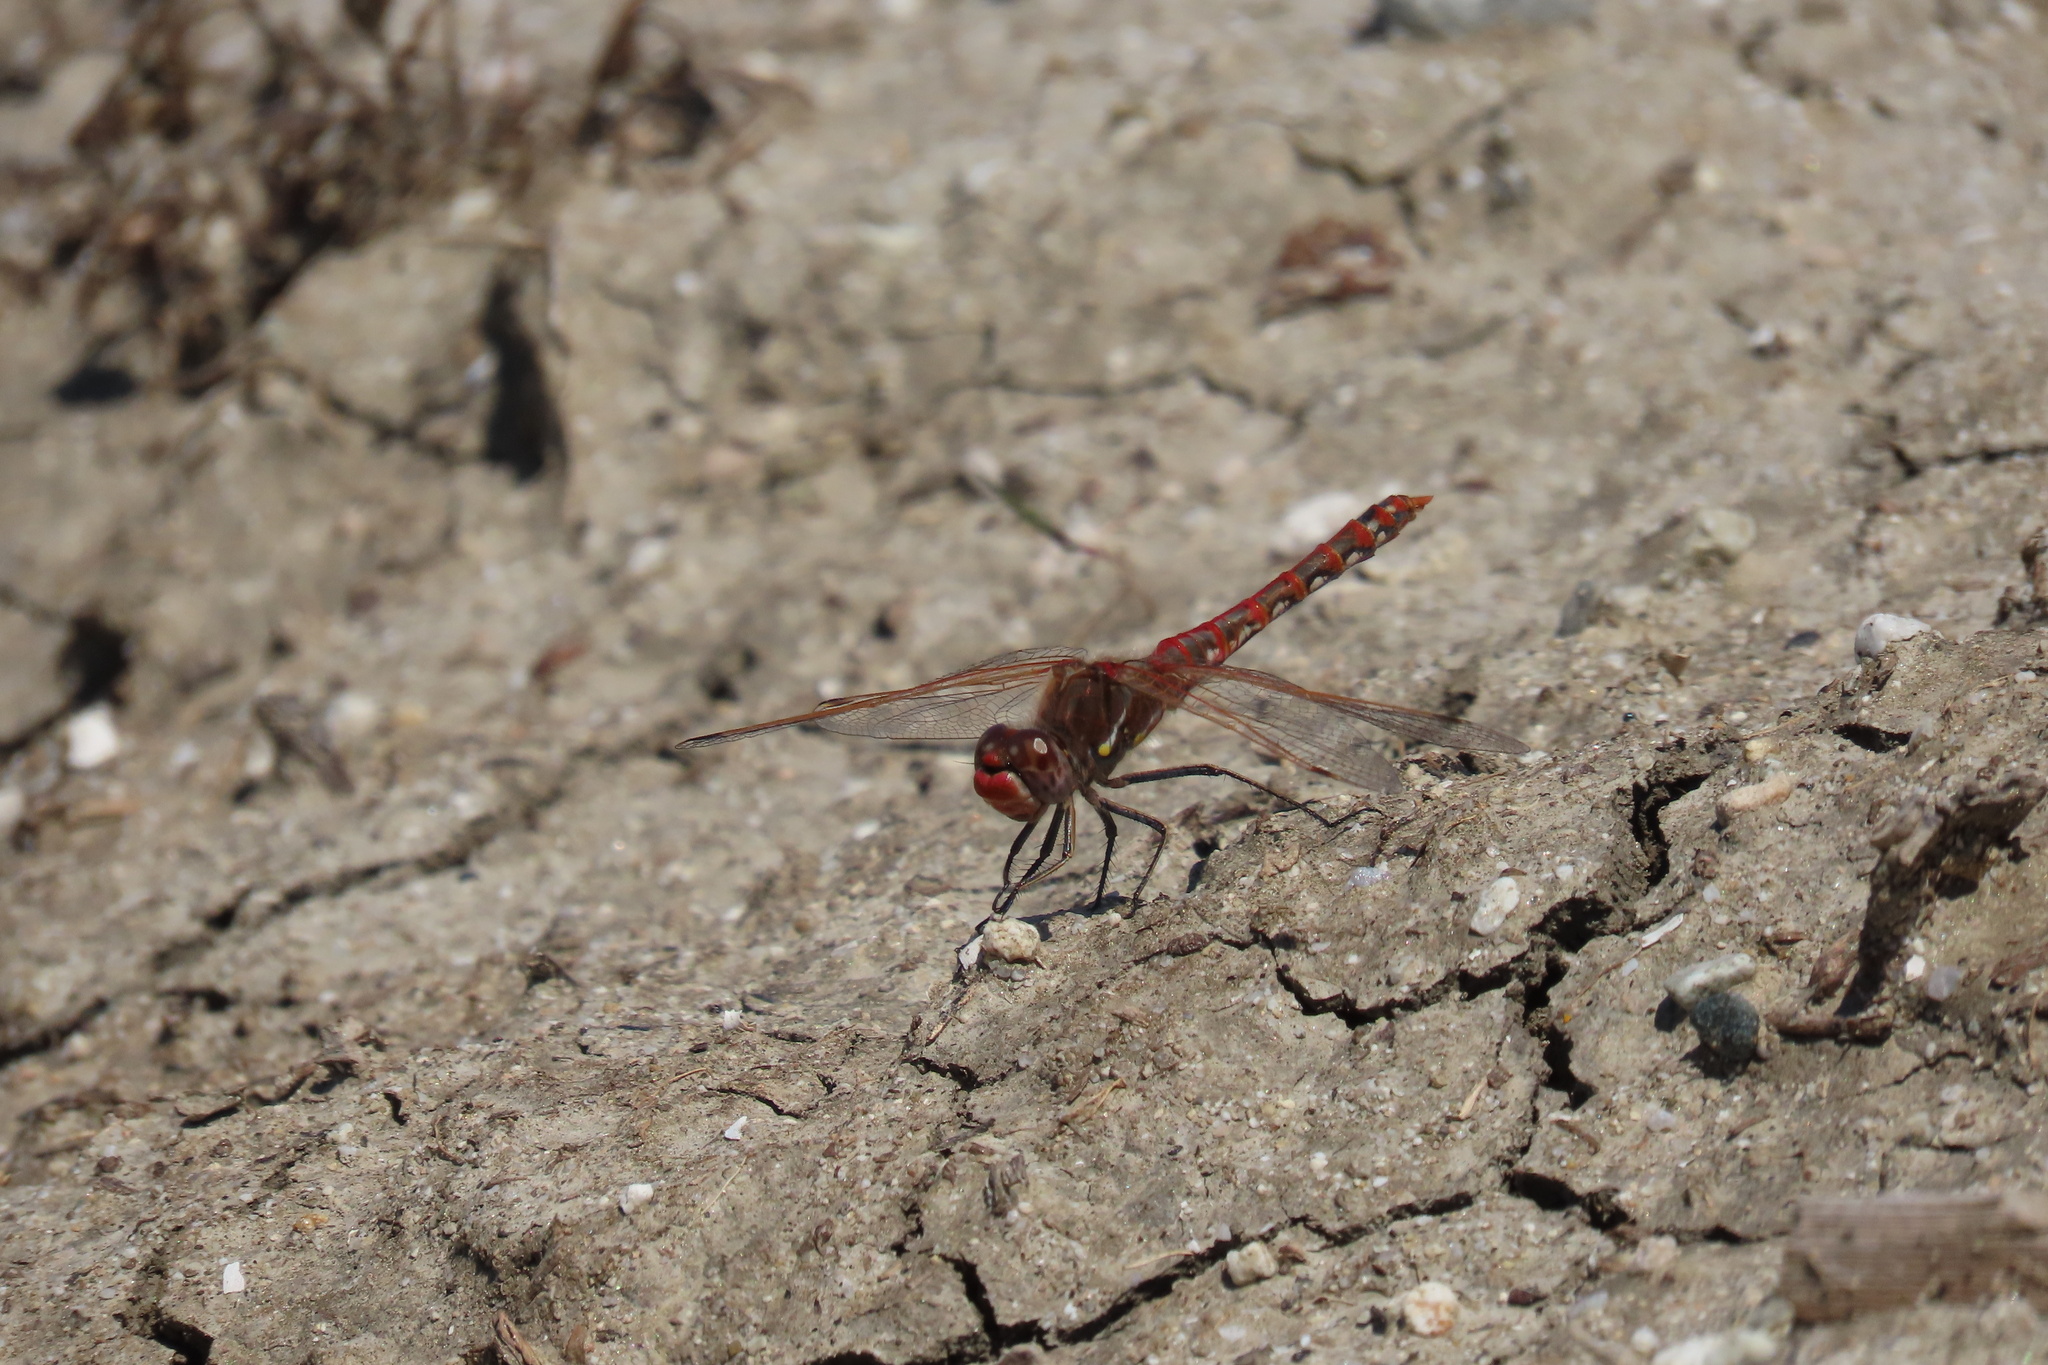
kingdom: Animalia
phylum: Arthropoda
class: Insecta
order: Odonata
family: Libellulidae
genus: Sympetrum
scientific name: Sympetrum corruptum
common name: Variegated meadowhawk
